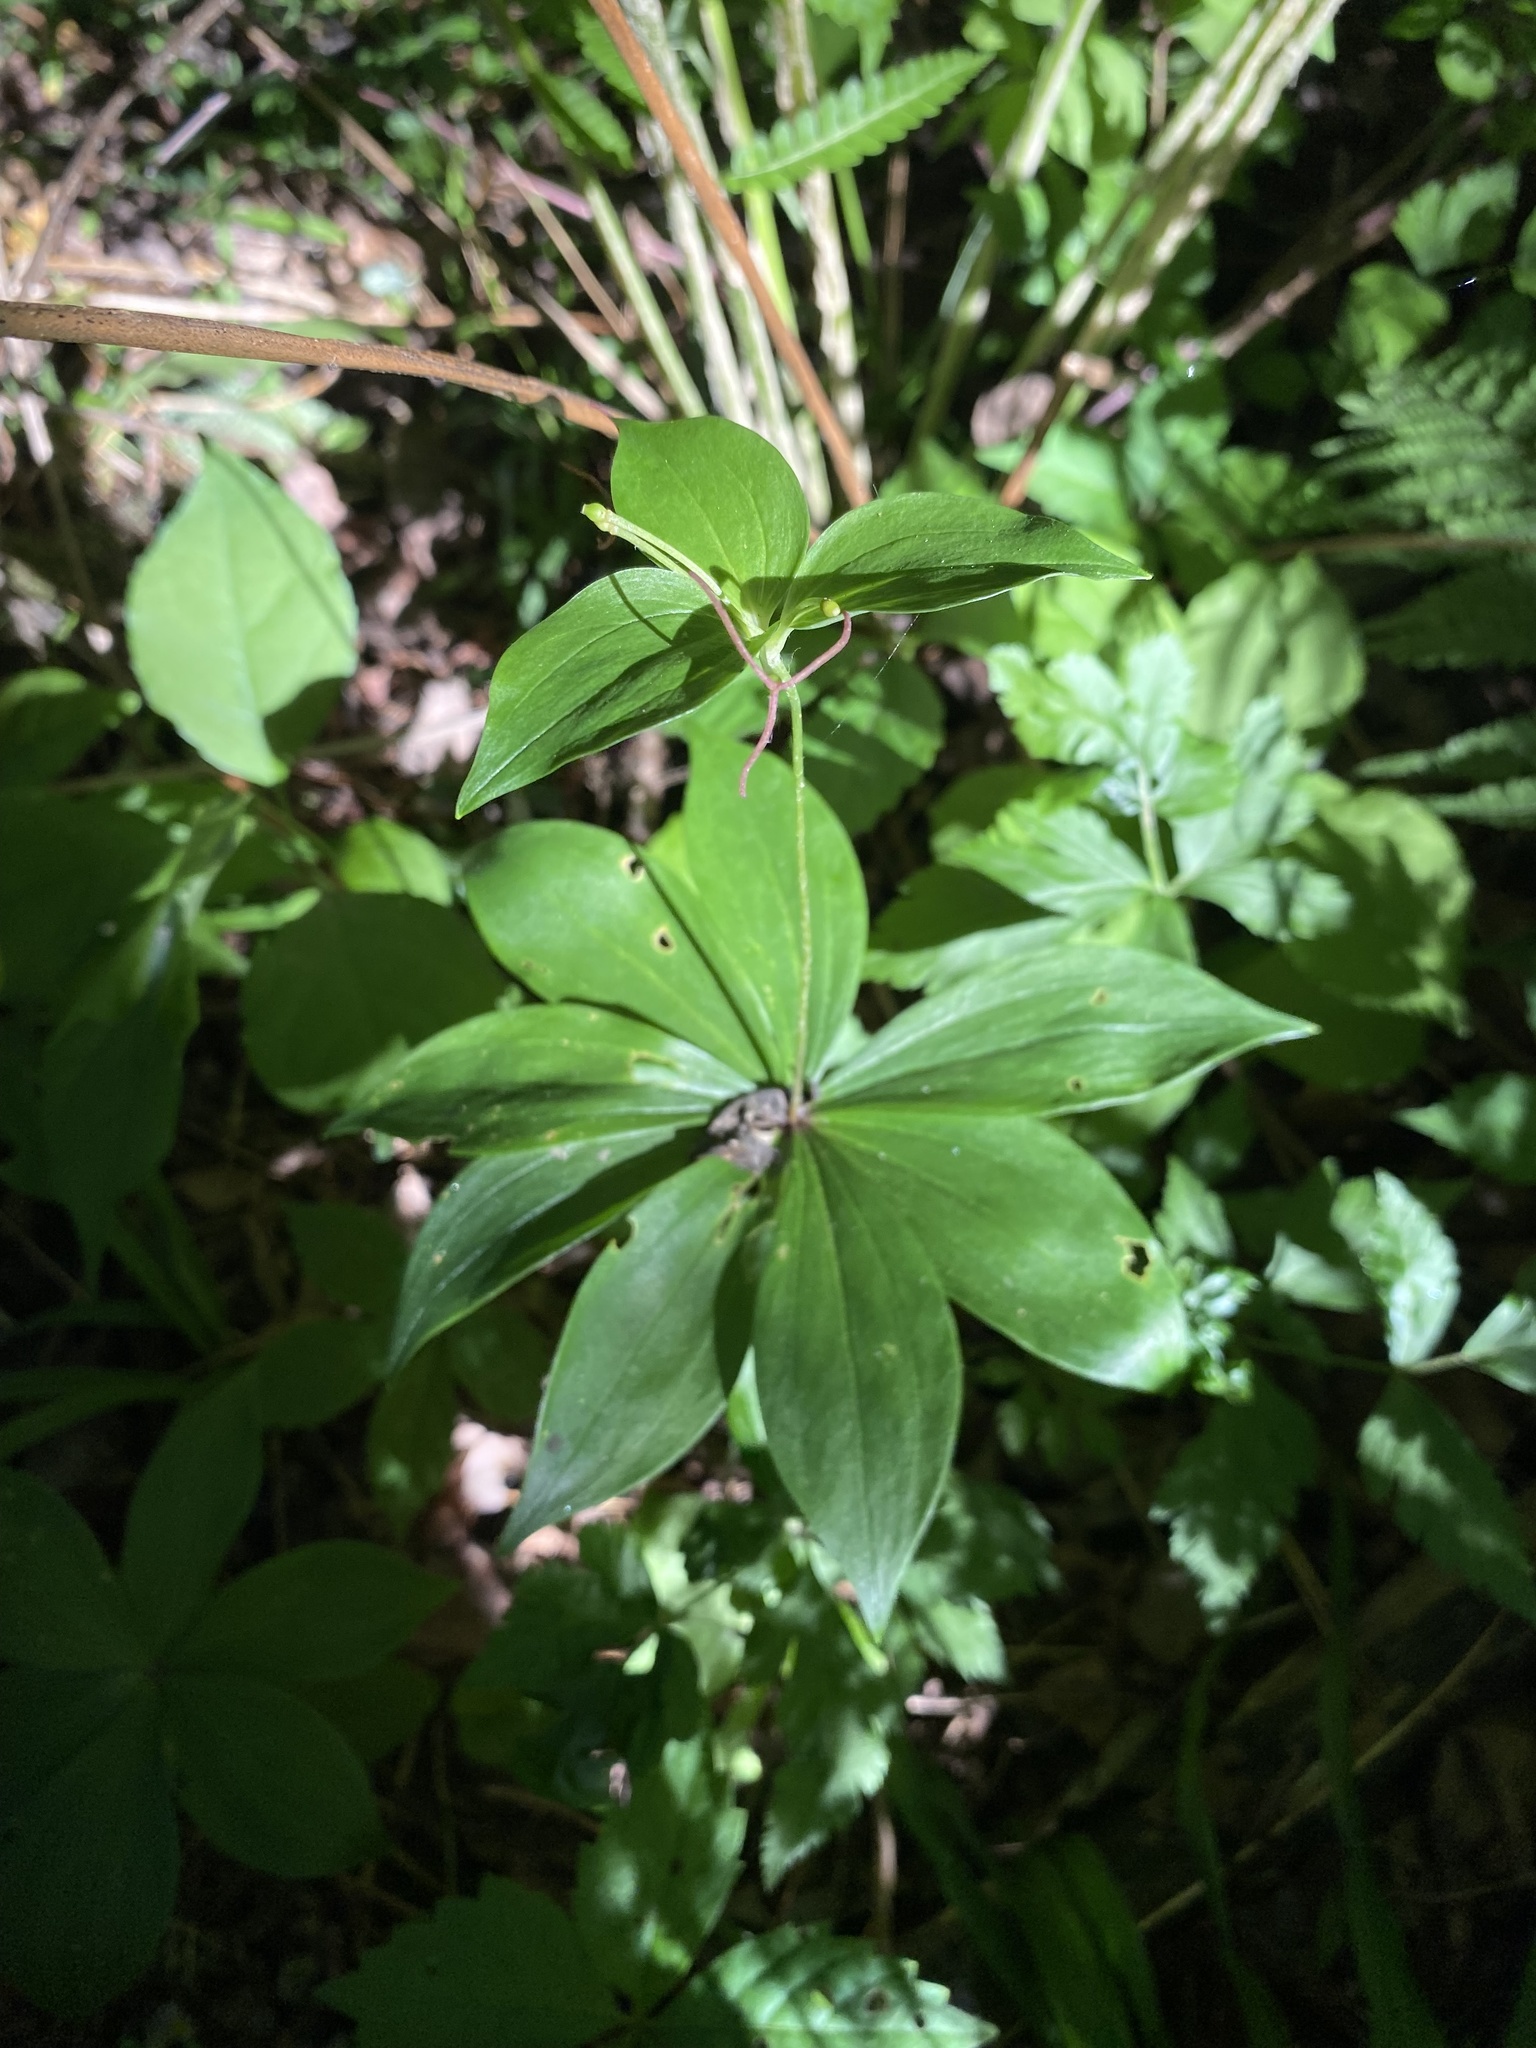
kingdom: Plantae
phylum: Tracheophyta
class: Liliopsida
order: Liliales
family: Liliaceae
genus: Medeola
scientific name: Medeola virginiana
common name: Indian cucumber-root
